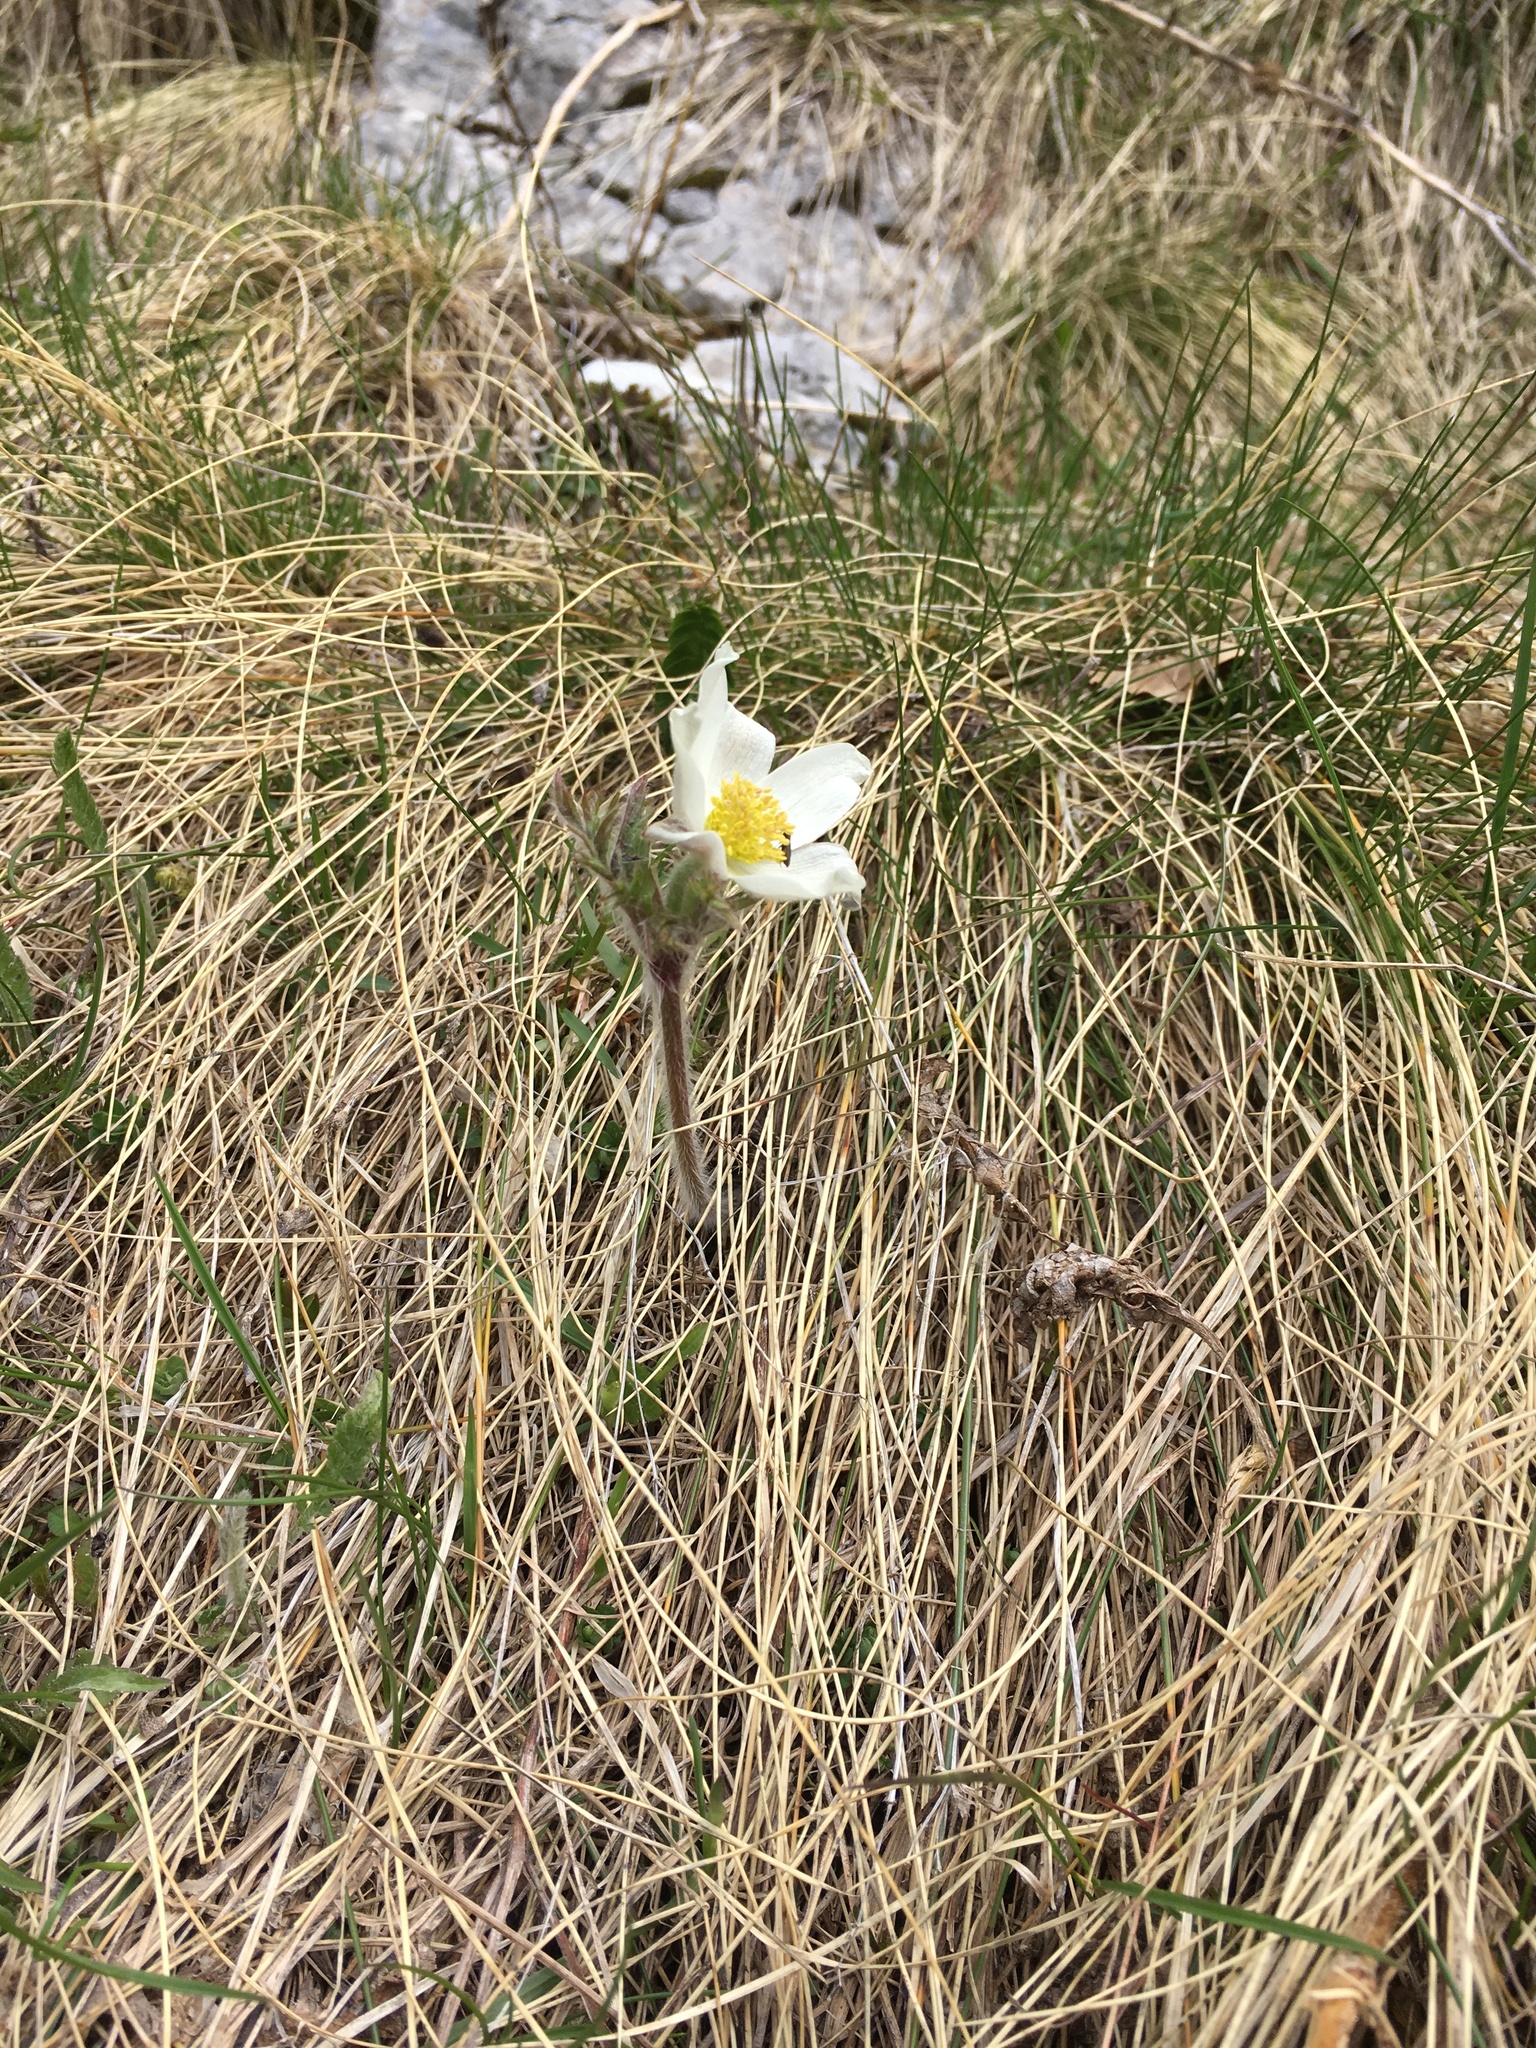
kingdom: Plantae
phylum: Tracheophyta
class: Magnoliopsida
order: Ranunculales
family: Ranunculaceae
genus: Pulsatilla
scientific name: Pulsatilla alpina
